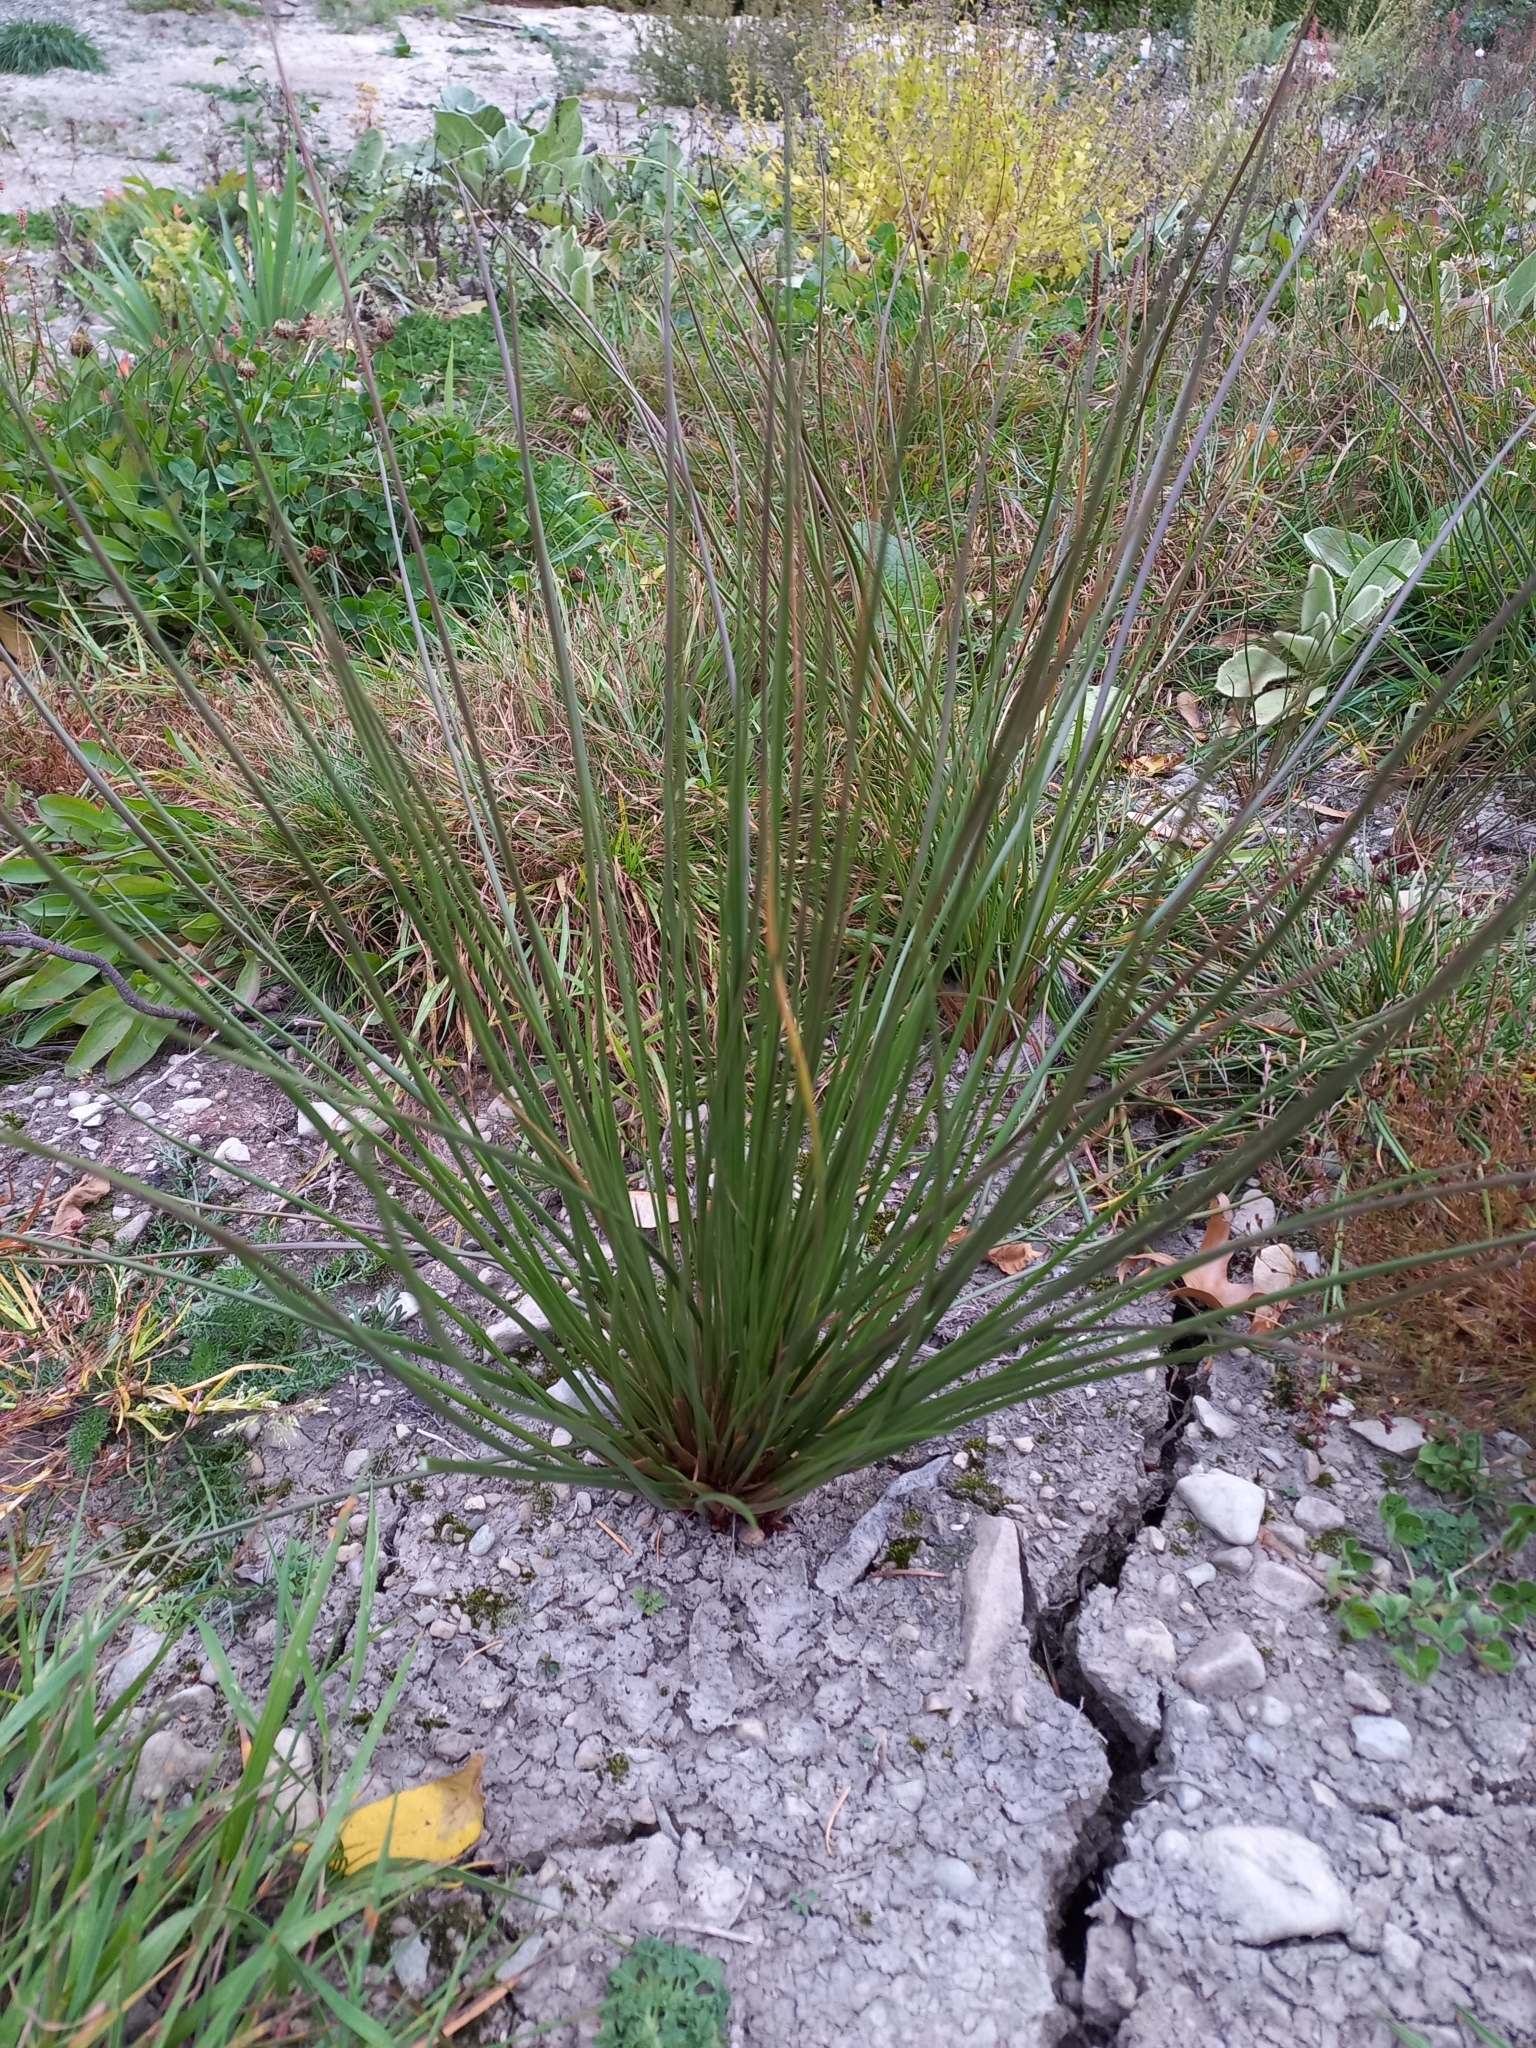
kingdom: Plantae
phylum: Tracheophyta
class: Liliopsida
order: Poales
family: Juncaceae
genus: Juncus
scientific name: Juncus effusus
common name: Soft rush
